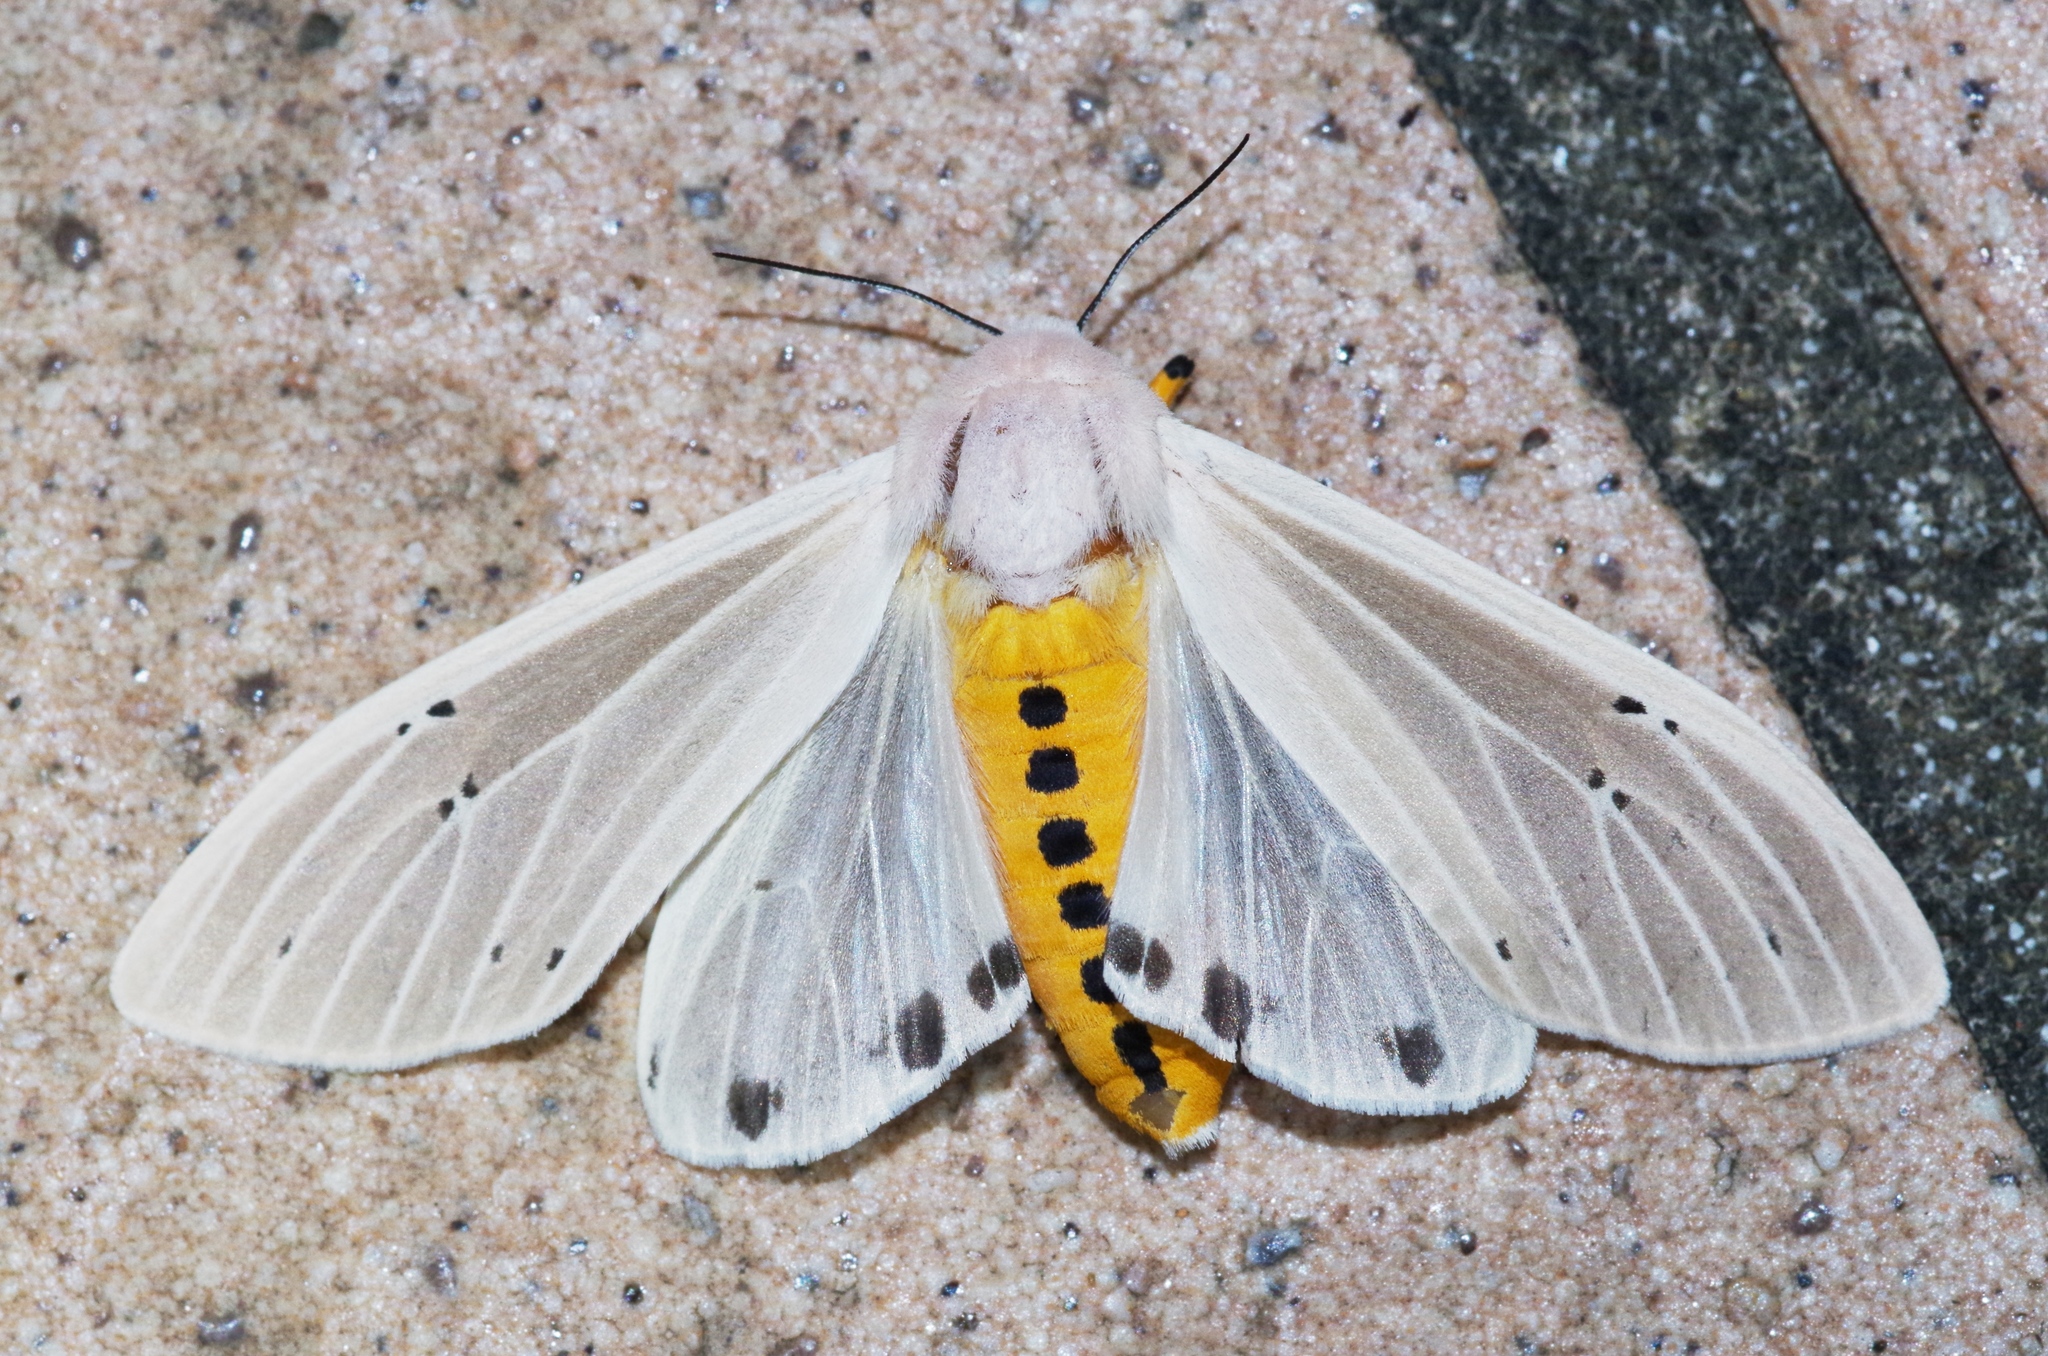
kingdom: Animalia
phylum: Arthropoda
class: Insecta
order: Lepidoptera
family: Erebidae
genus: Creatonotos
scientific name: Creatonotos transiens
